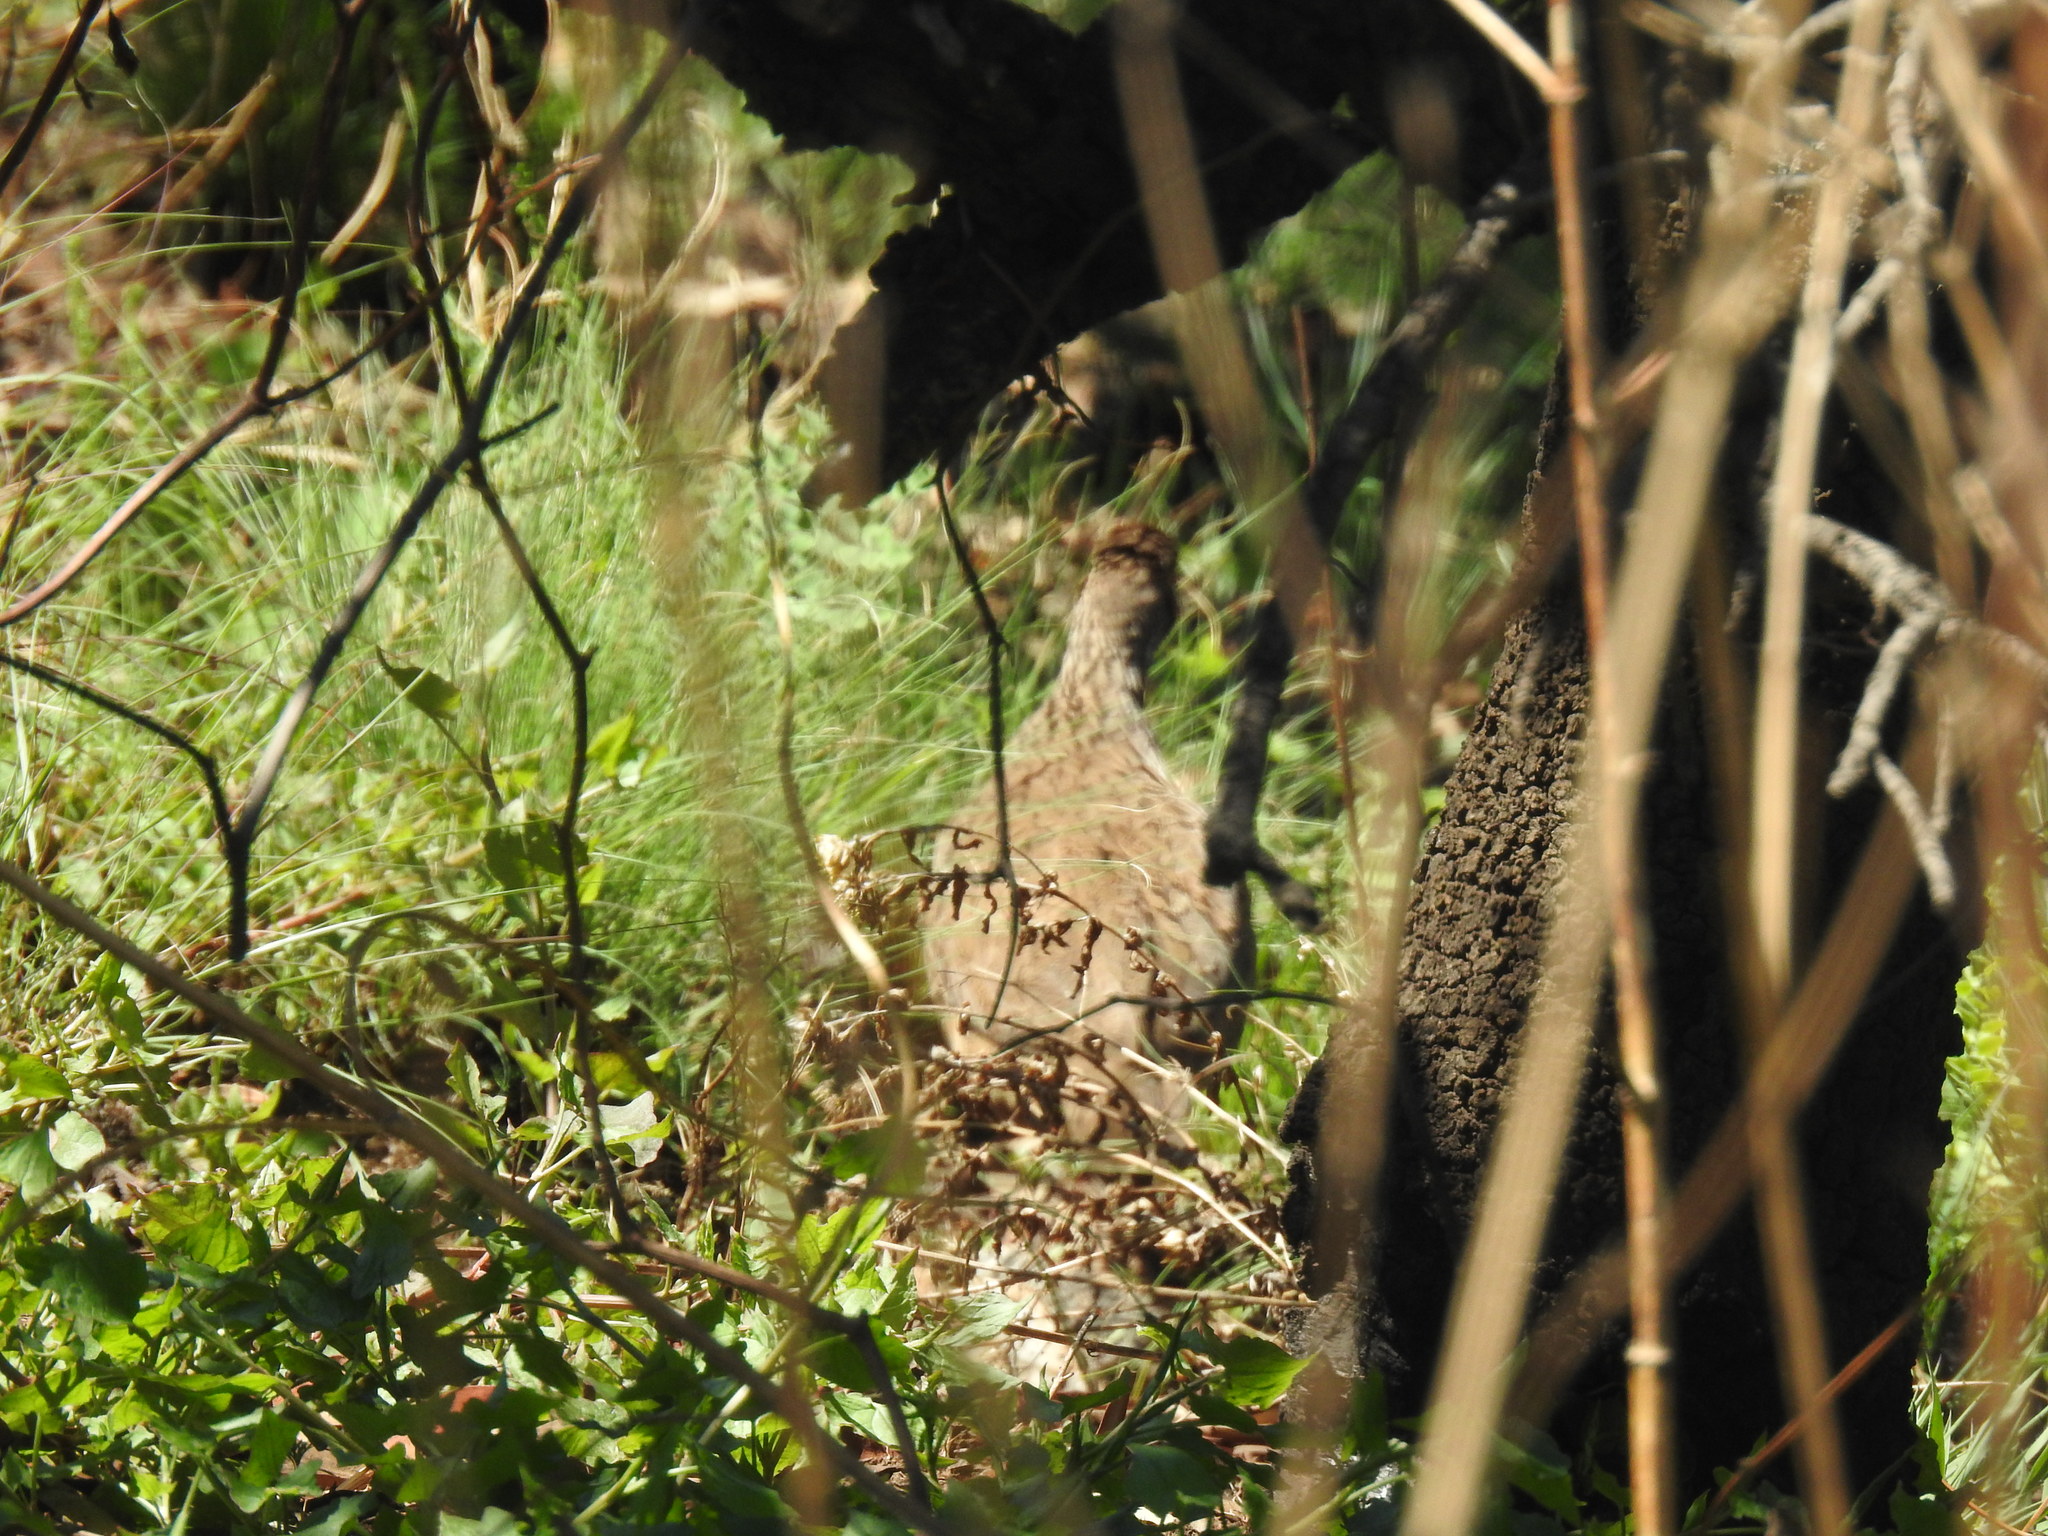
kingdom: Animalia
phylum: Chordata
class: Aves
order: Galliformes
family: Phasianidae
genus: Pternistis
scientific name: Pternistis swainsonii
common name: Swainson's spurfowl
